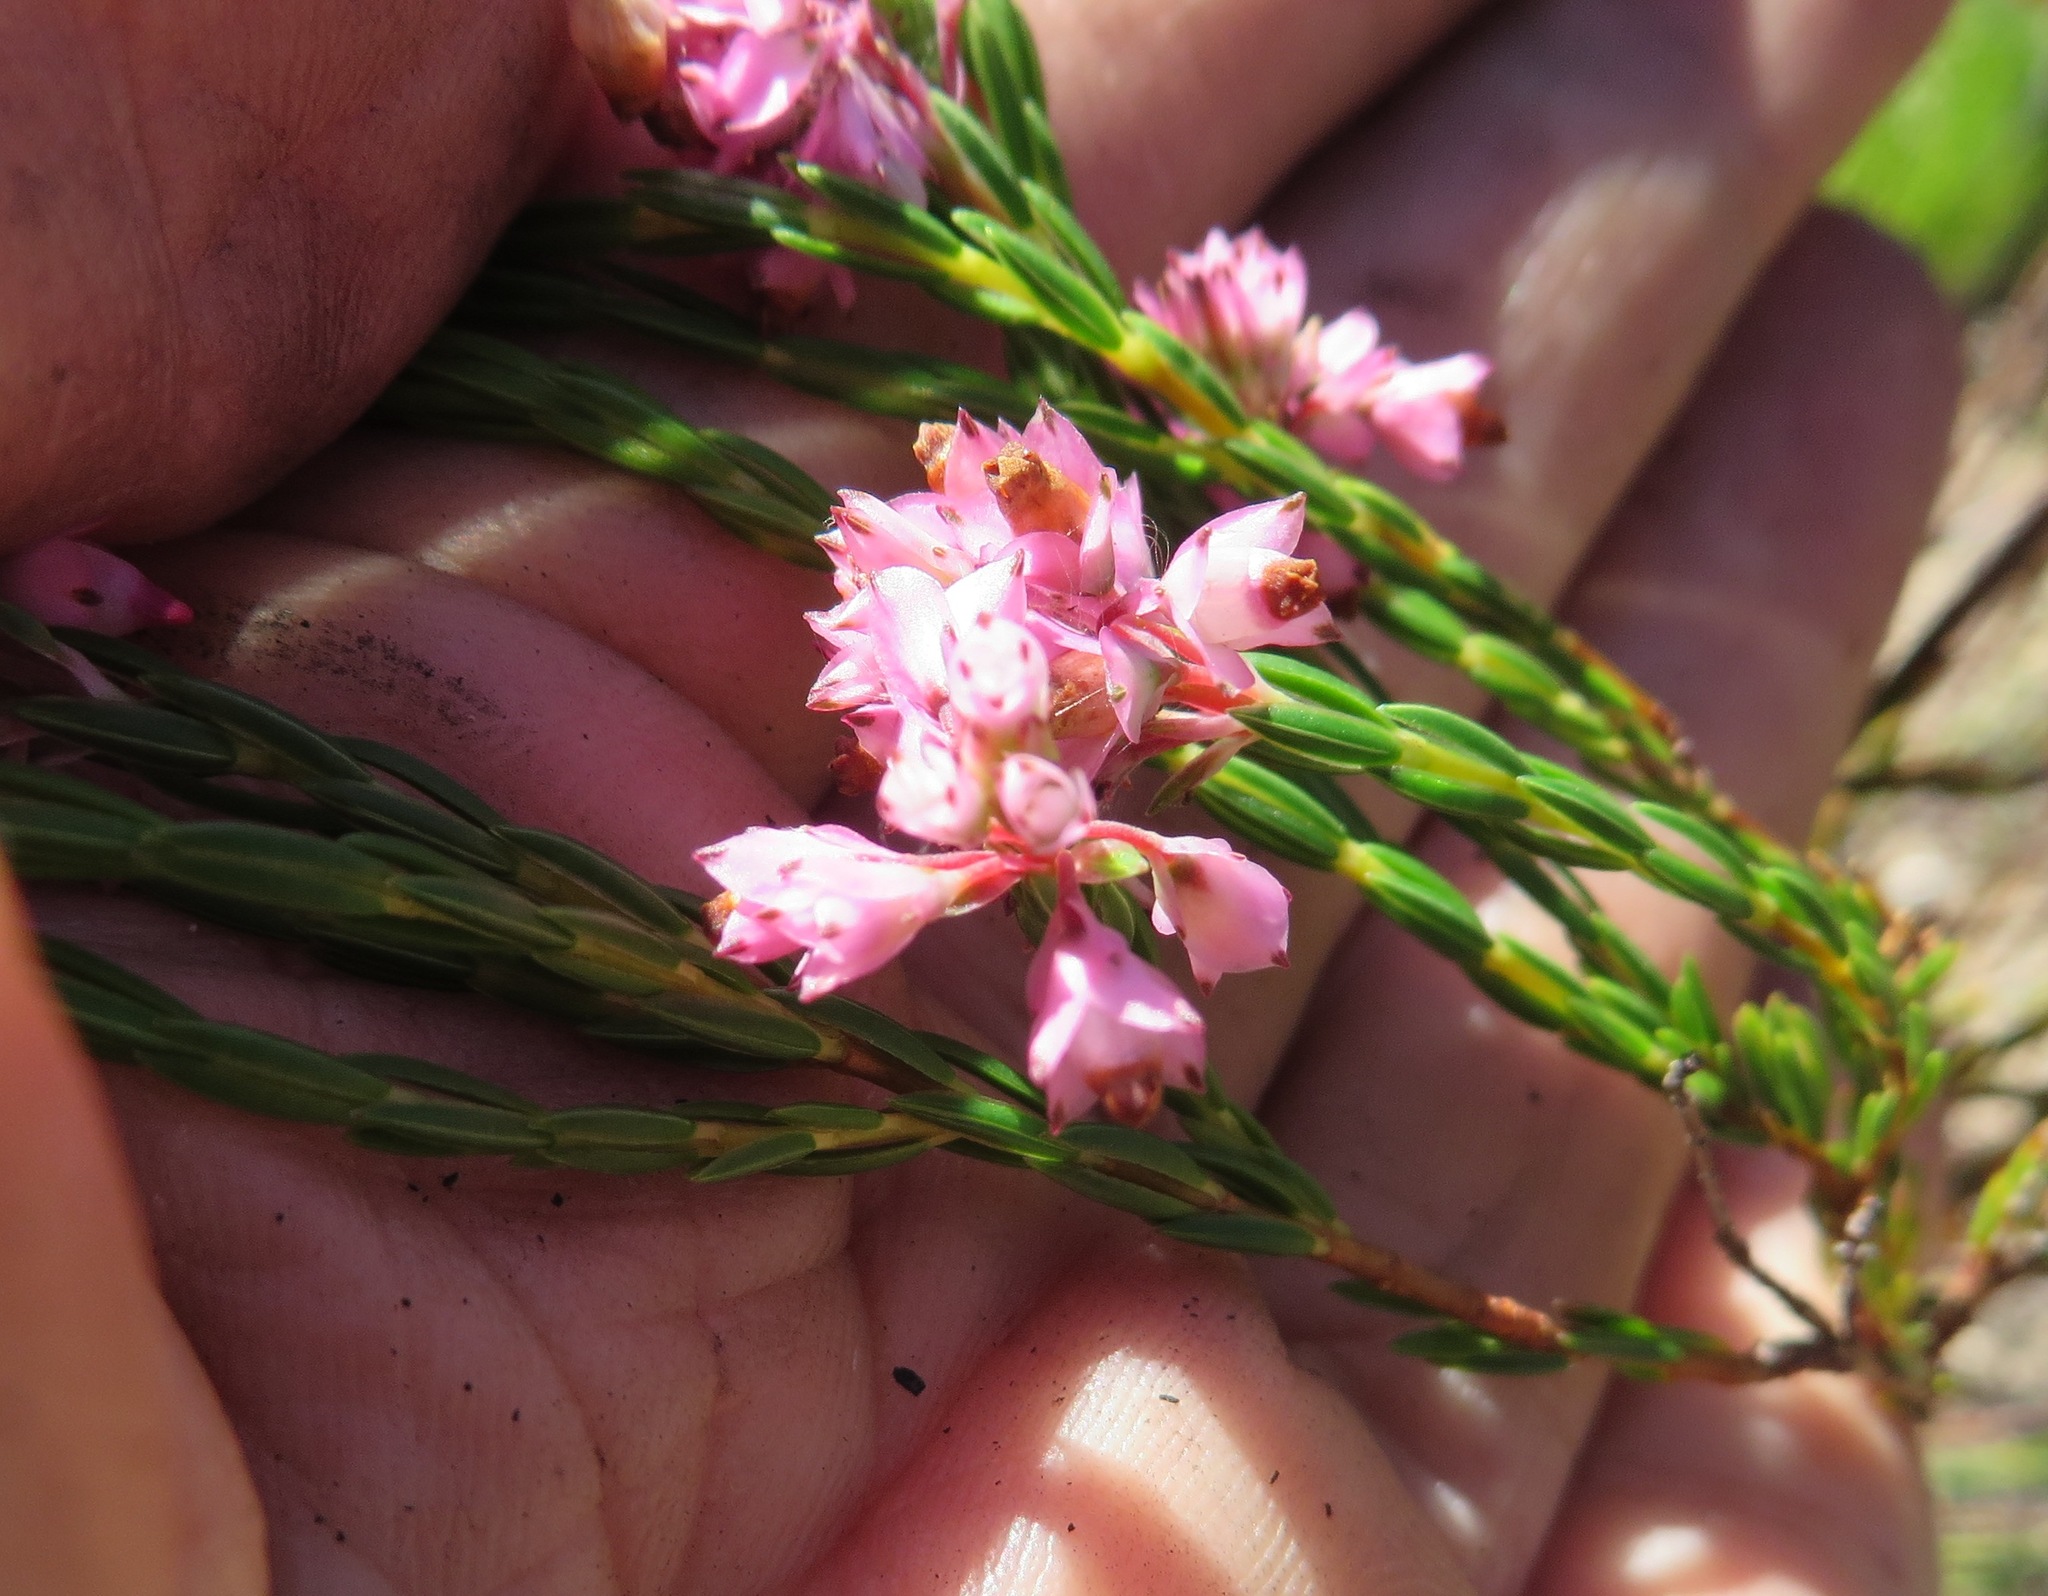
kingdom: Plantae
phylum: Tracheophyta
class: Magnoliopsida
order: Ericales
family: Ericaceae
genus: Erica
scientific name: Erica corifolia
